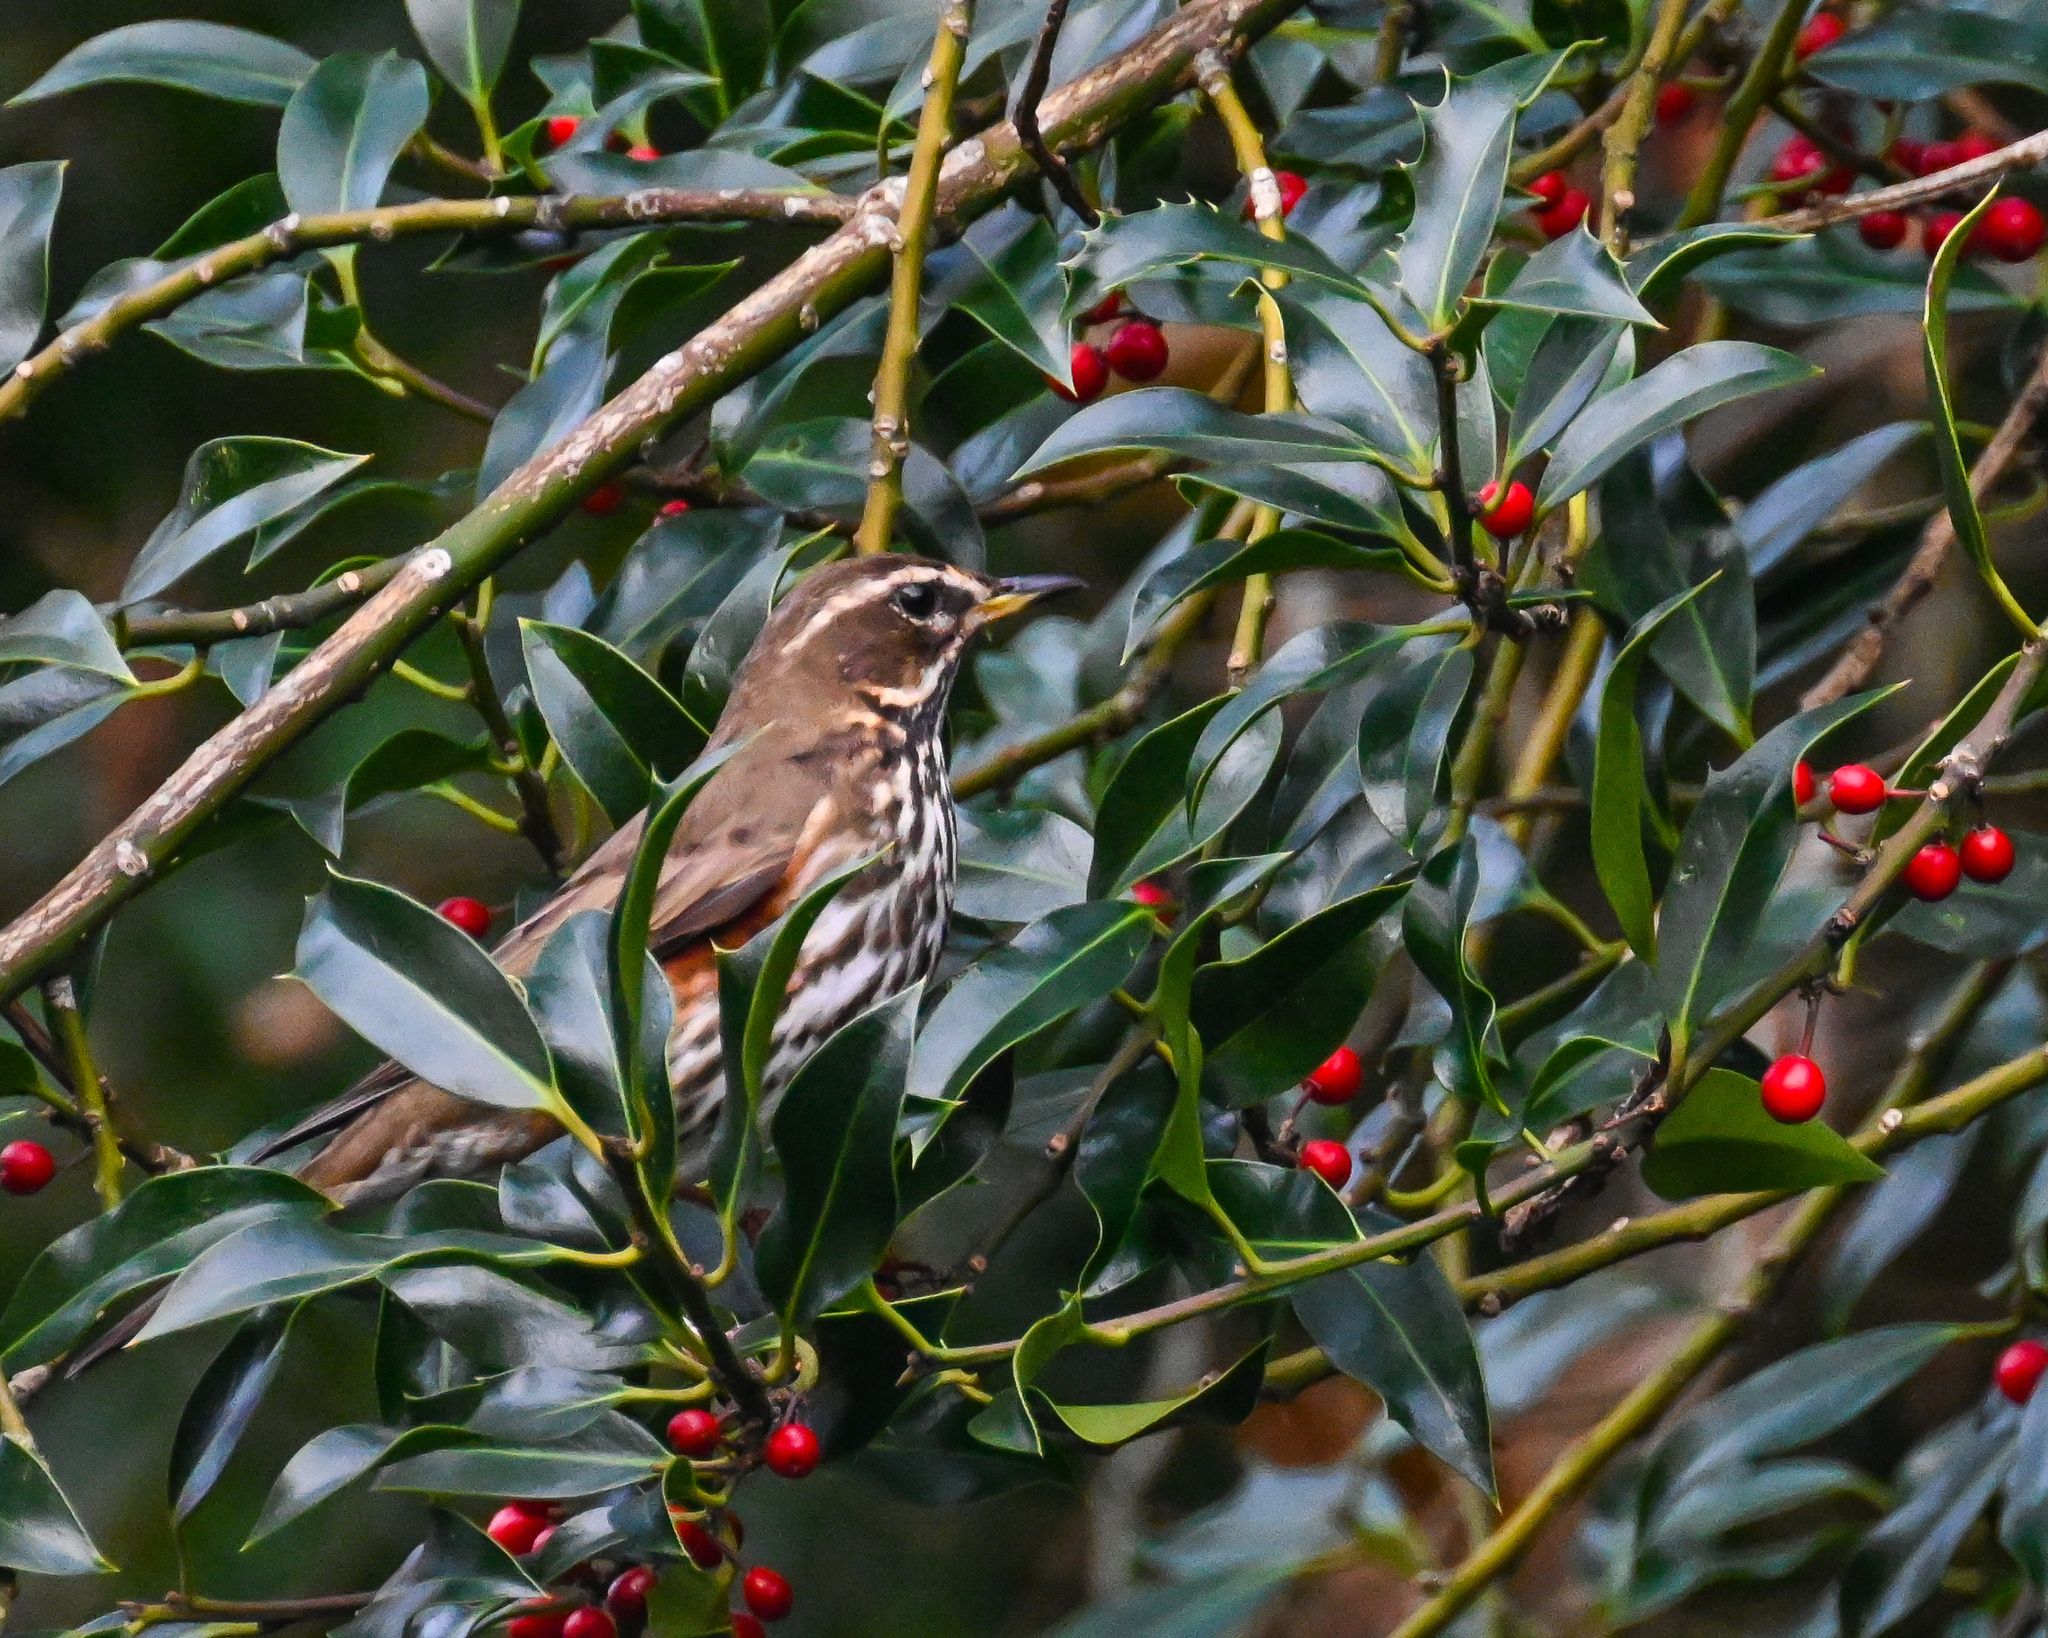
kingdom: Animalia
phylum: Chordata
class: Aves
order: Passeriformes
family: Turdidae
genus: Turdus
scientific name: Turdus iliacus
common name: Redwing
